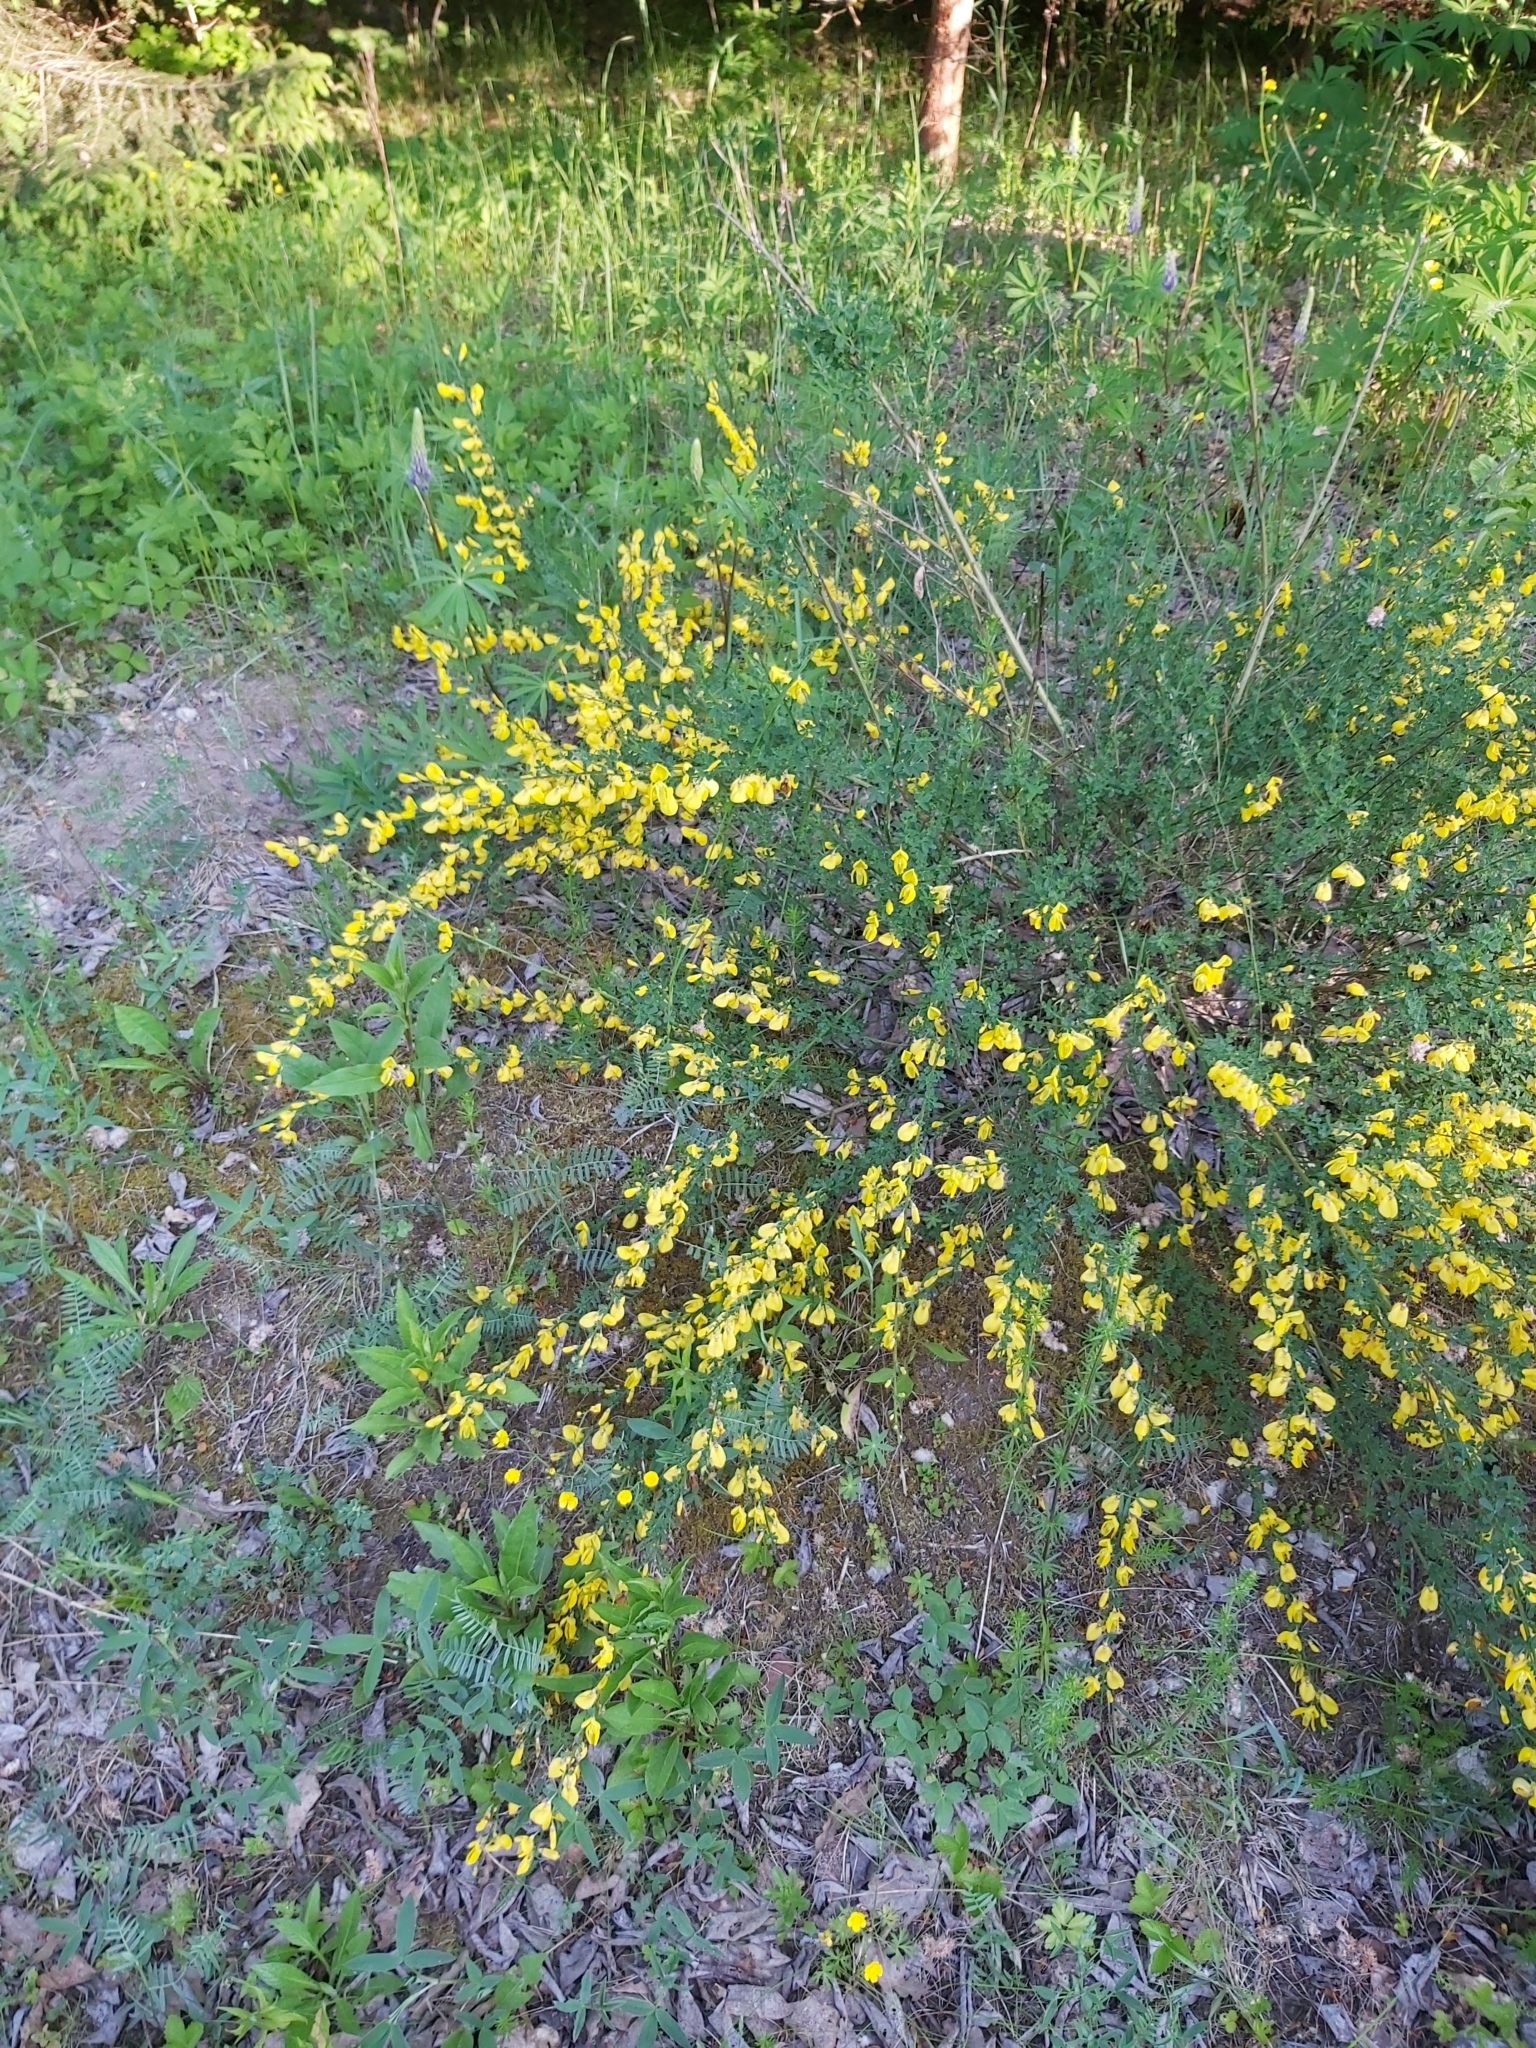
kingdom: Plantae
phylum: Tracheophyta
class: Magnoliopsida
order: Fabales
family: Fabaceae
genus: Cytisus
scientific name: Cytisus scoparius
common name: Scotch broom
